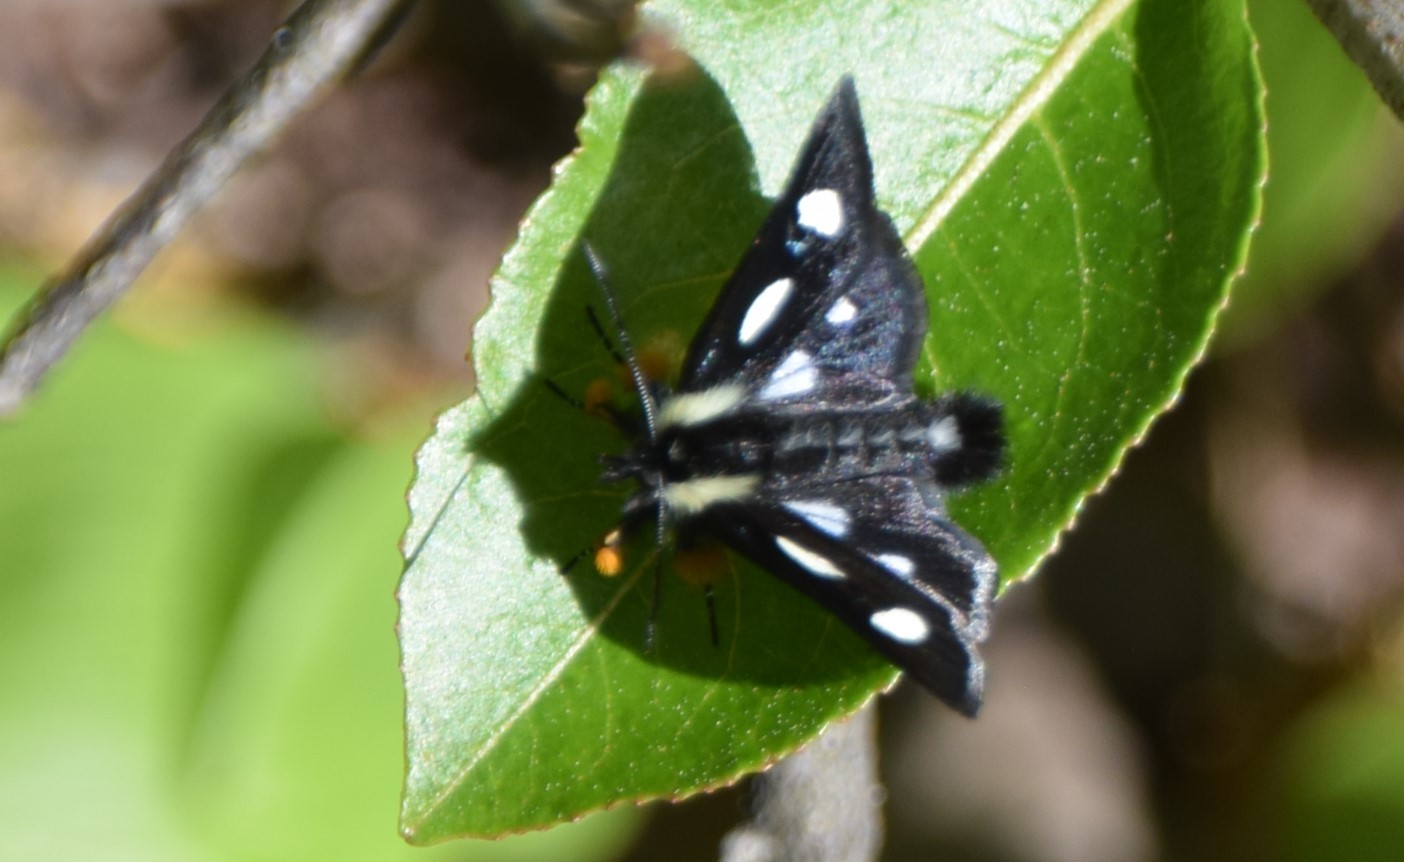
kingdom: Animalia
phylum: Arthropoda
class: Insecta
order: Lepidoptera
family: Noctuidae
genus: Alypia
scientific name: Alypia langtonii
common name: Fireweed caterpillar
